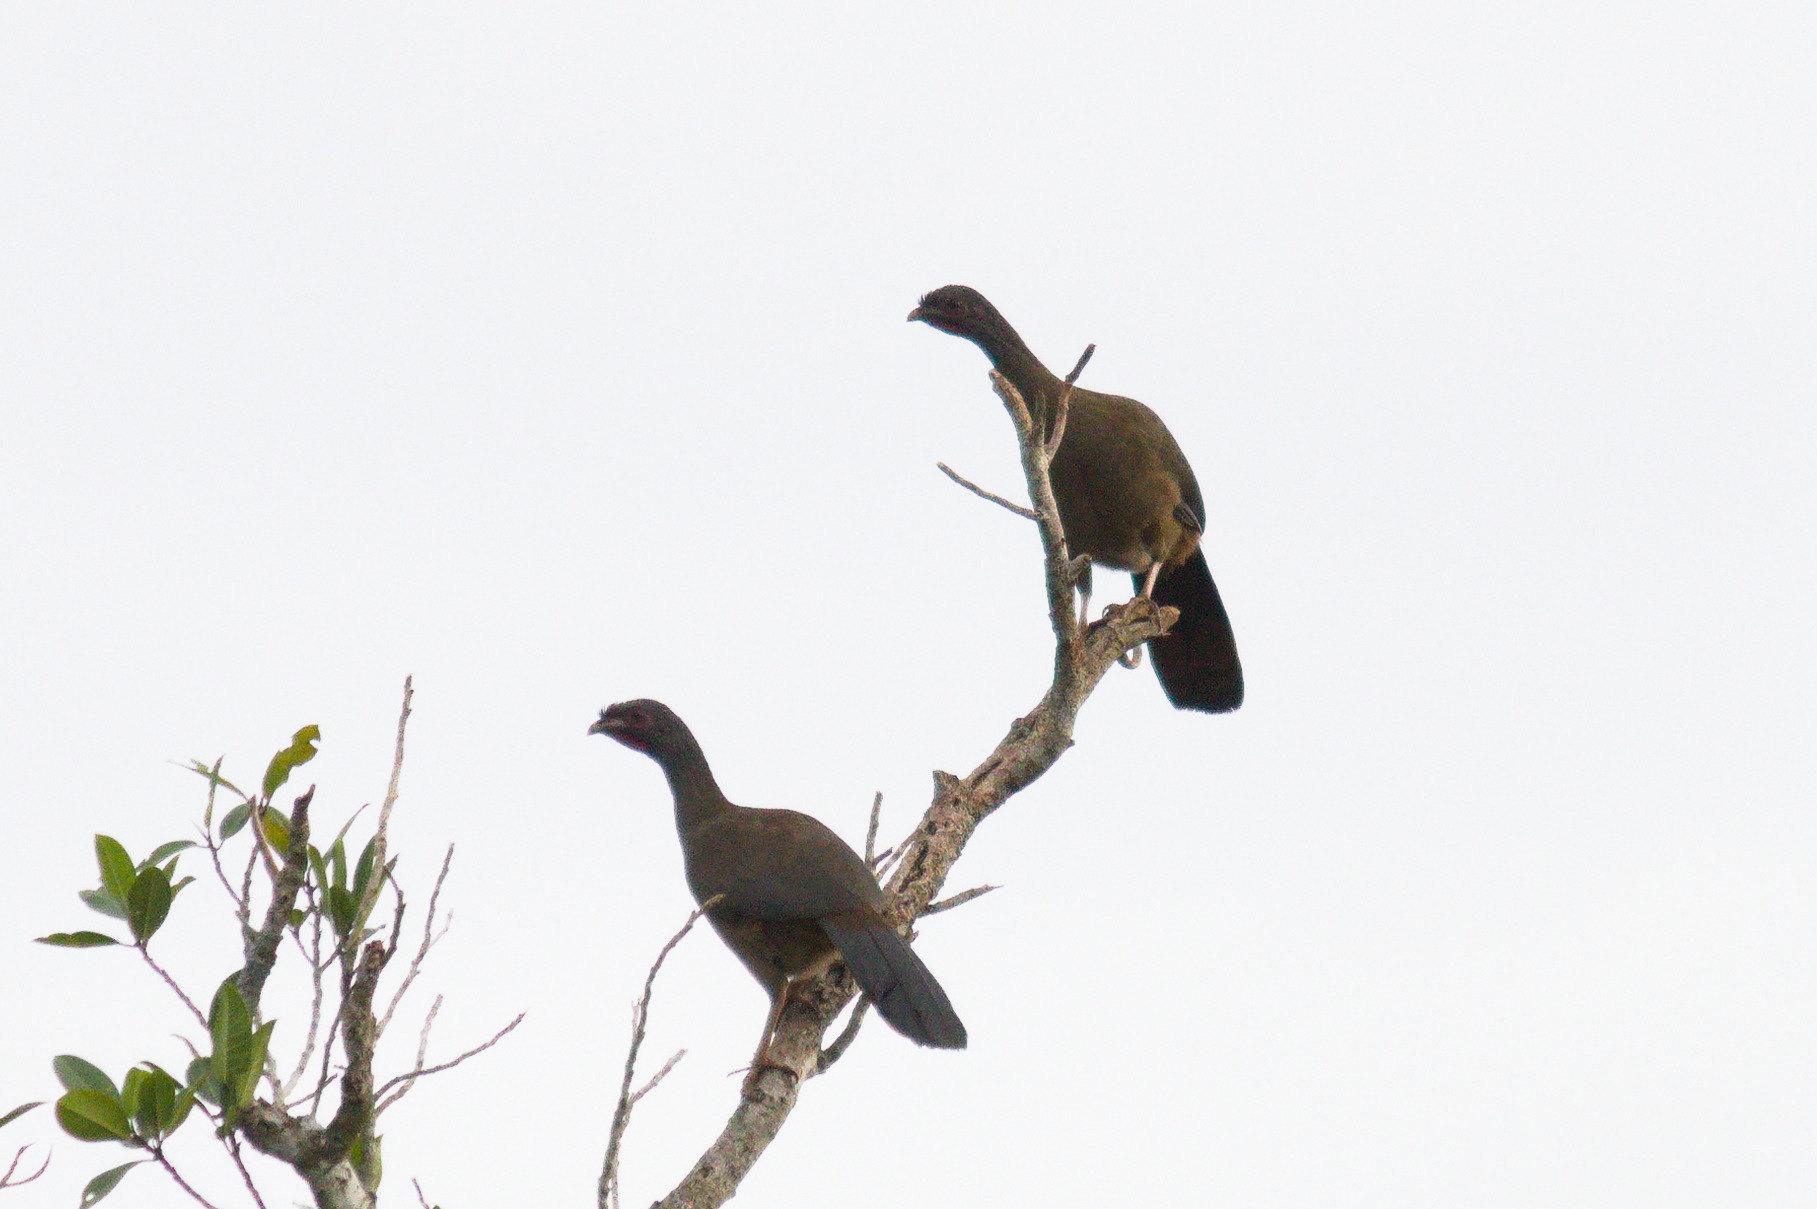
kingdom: Animalia
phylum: Chordata
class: Aves
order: Galliformes
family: Cracidae
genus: Ortalis
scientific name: Ortalis canicollis
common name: Chaco chachalaca
